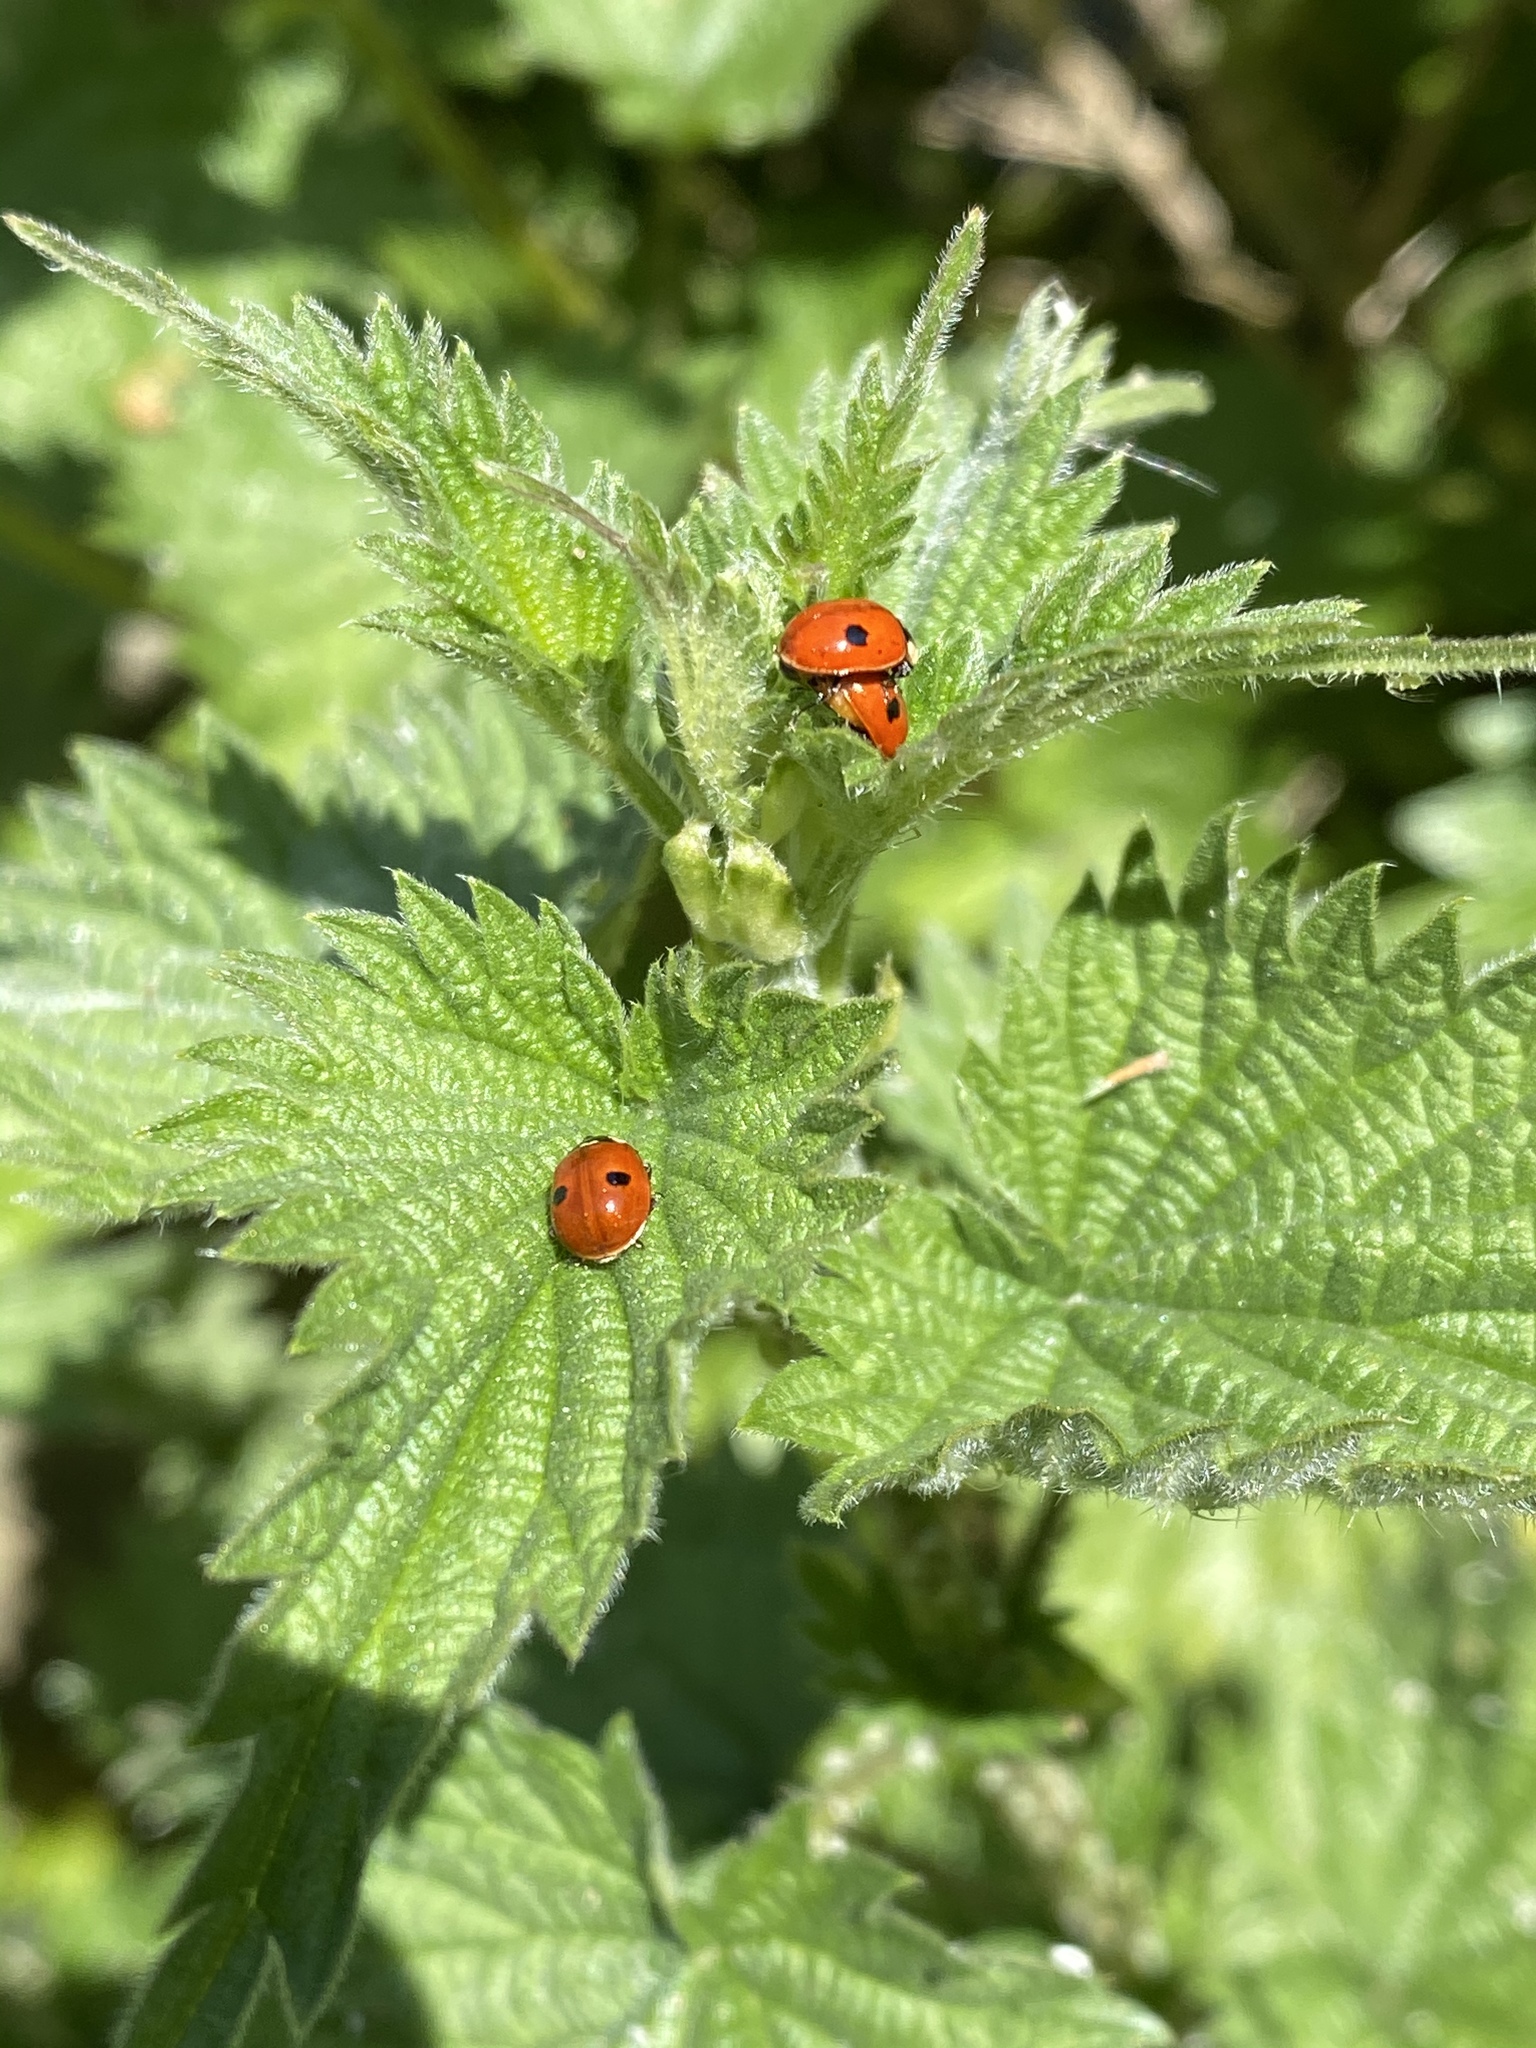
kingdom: Animalia
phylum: Arthropoda
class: Insecta
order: Coleoptera
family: Coccinellidae
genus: Adalia
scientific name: Adalia bipunctata
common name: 2-spot ladybird
